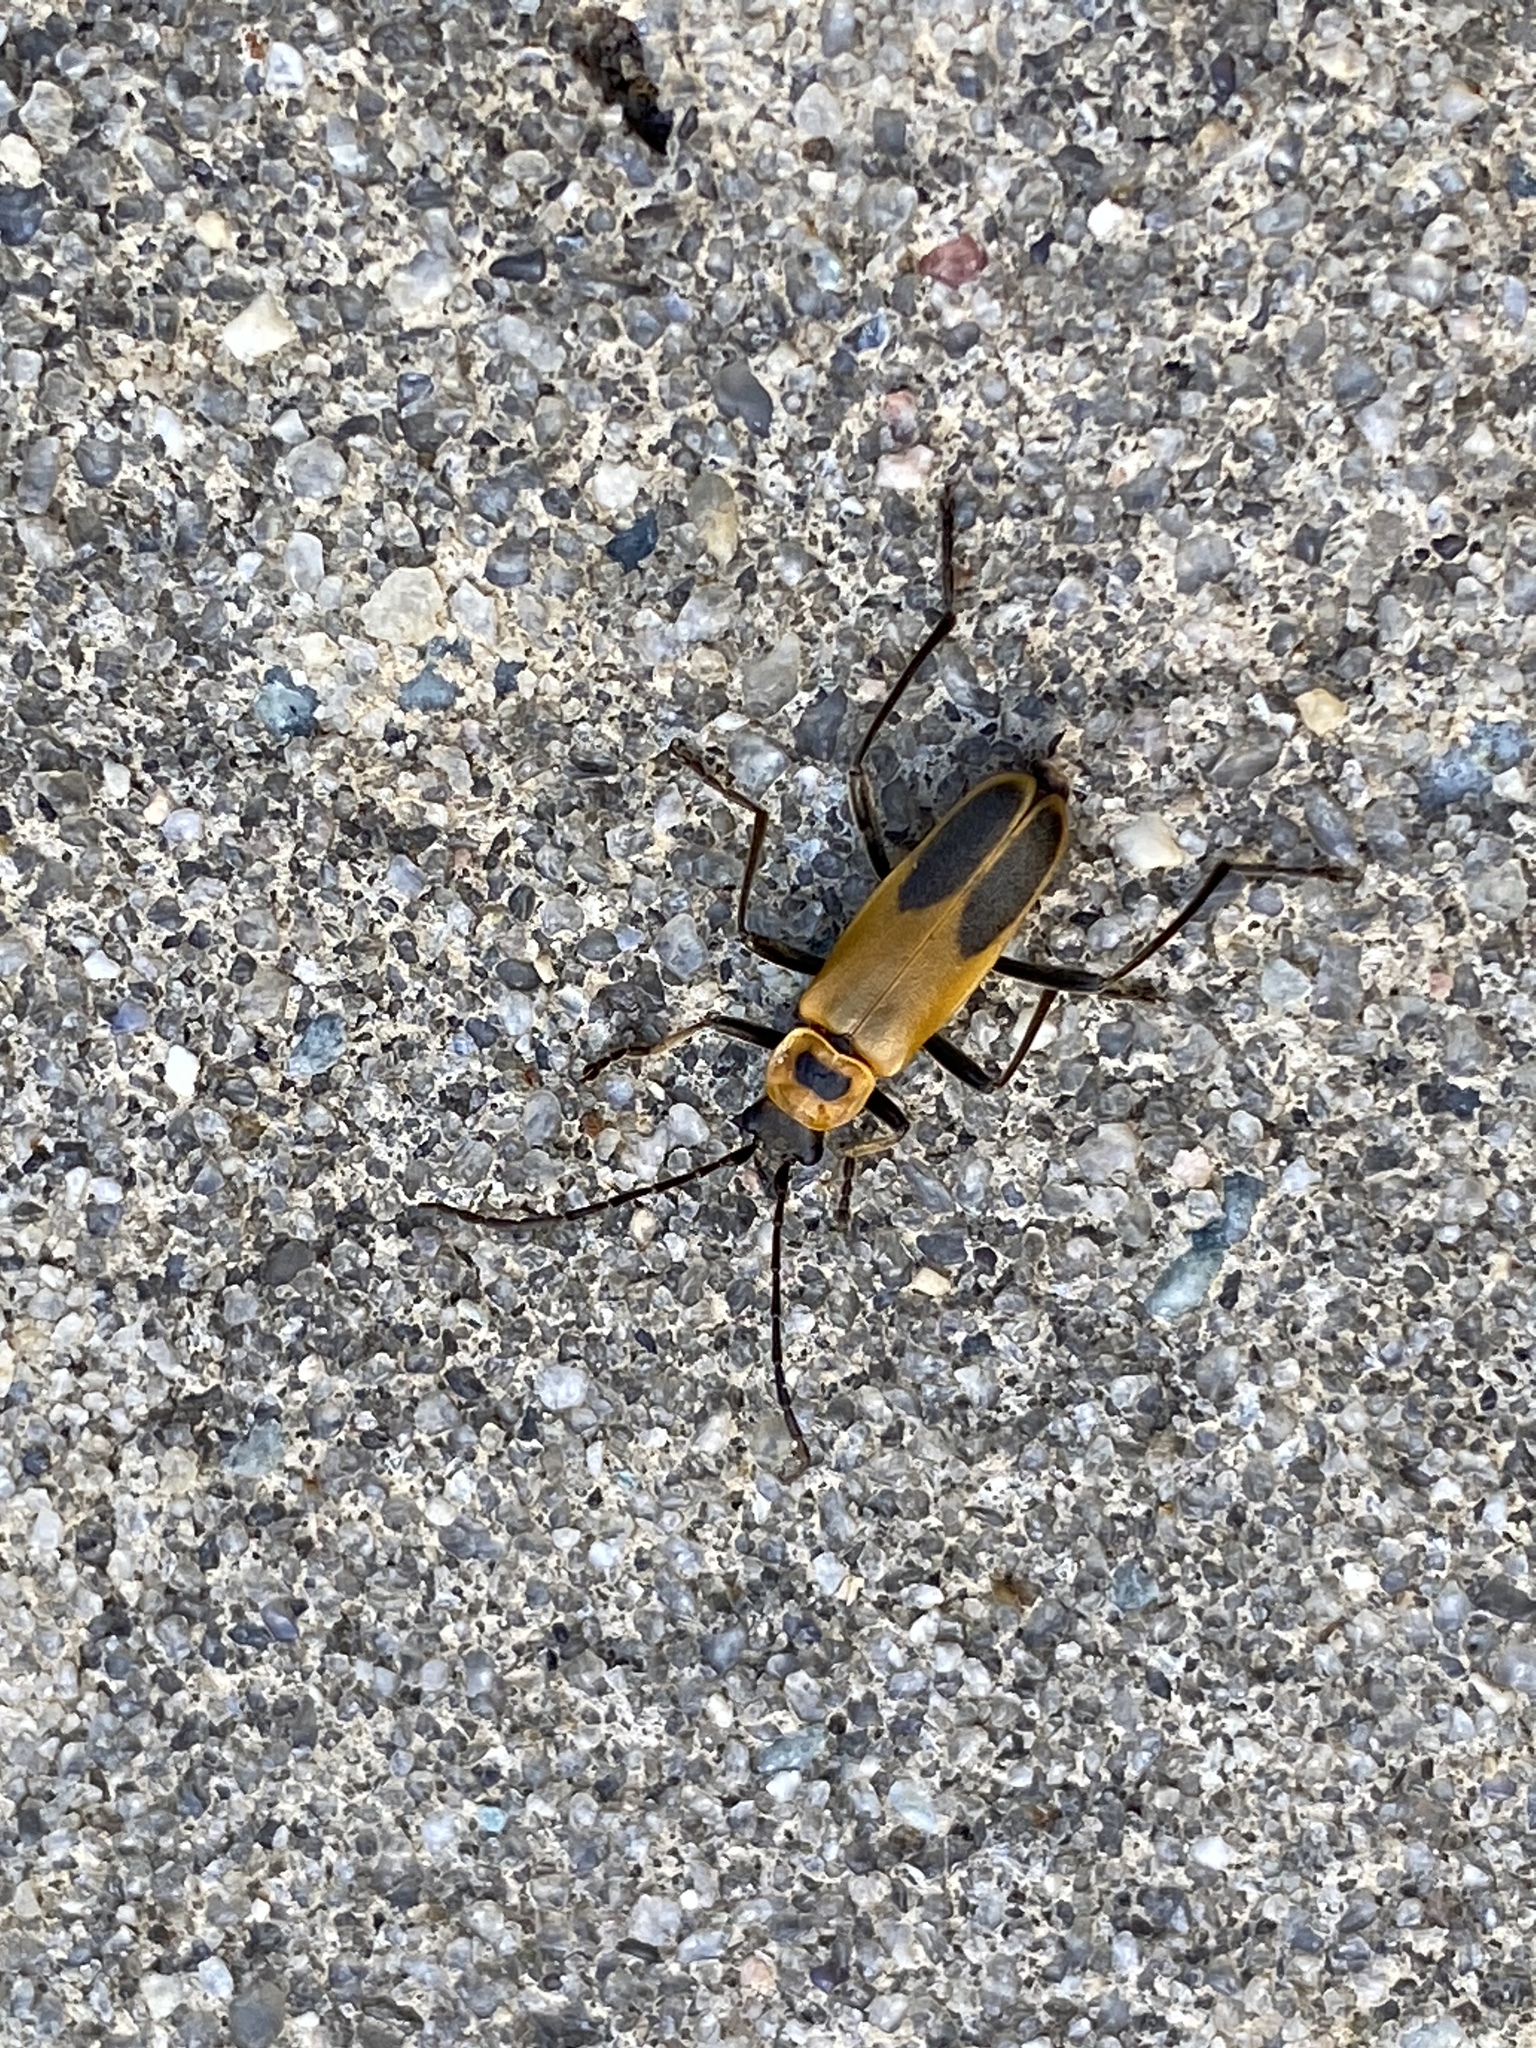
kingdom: Animalia
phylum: Arthropoda
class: Insecta
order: Coleoptera
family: Cantharidae
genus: Chauliognathus
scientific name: Chauliognathus pensylvanicus
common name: Goldenrod soldier beetle
